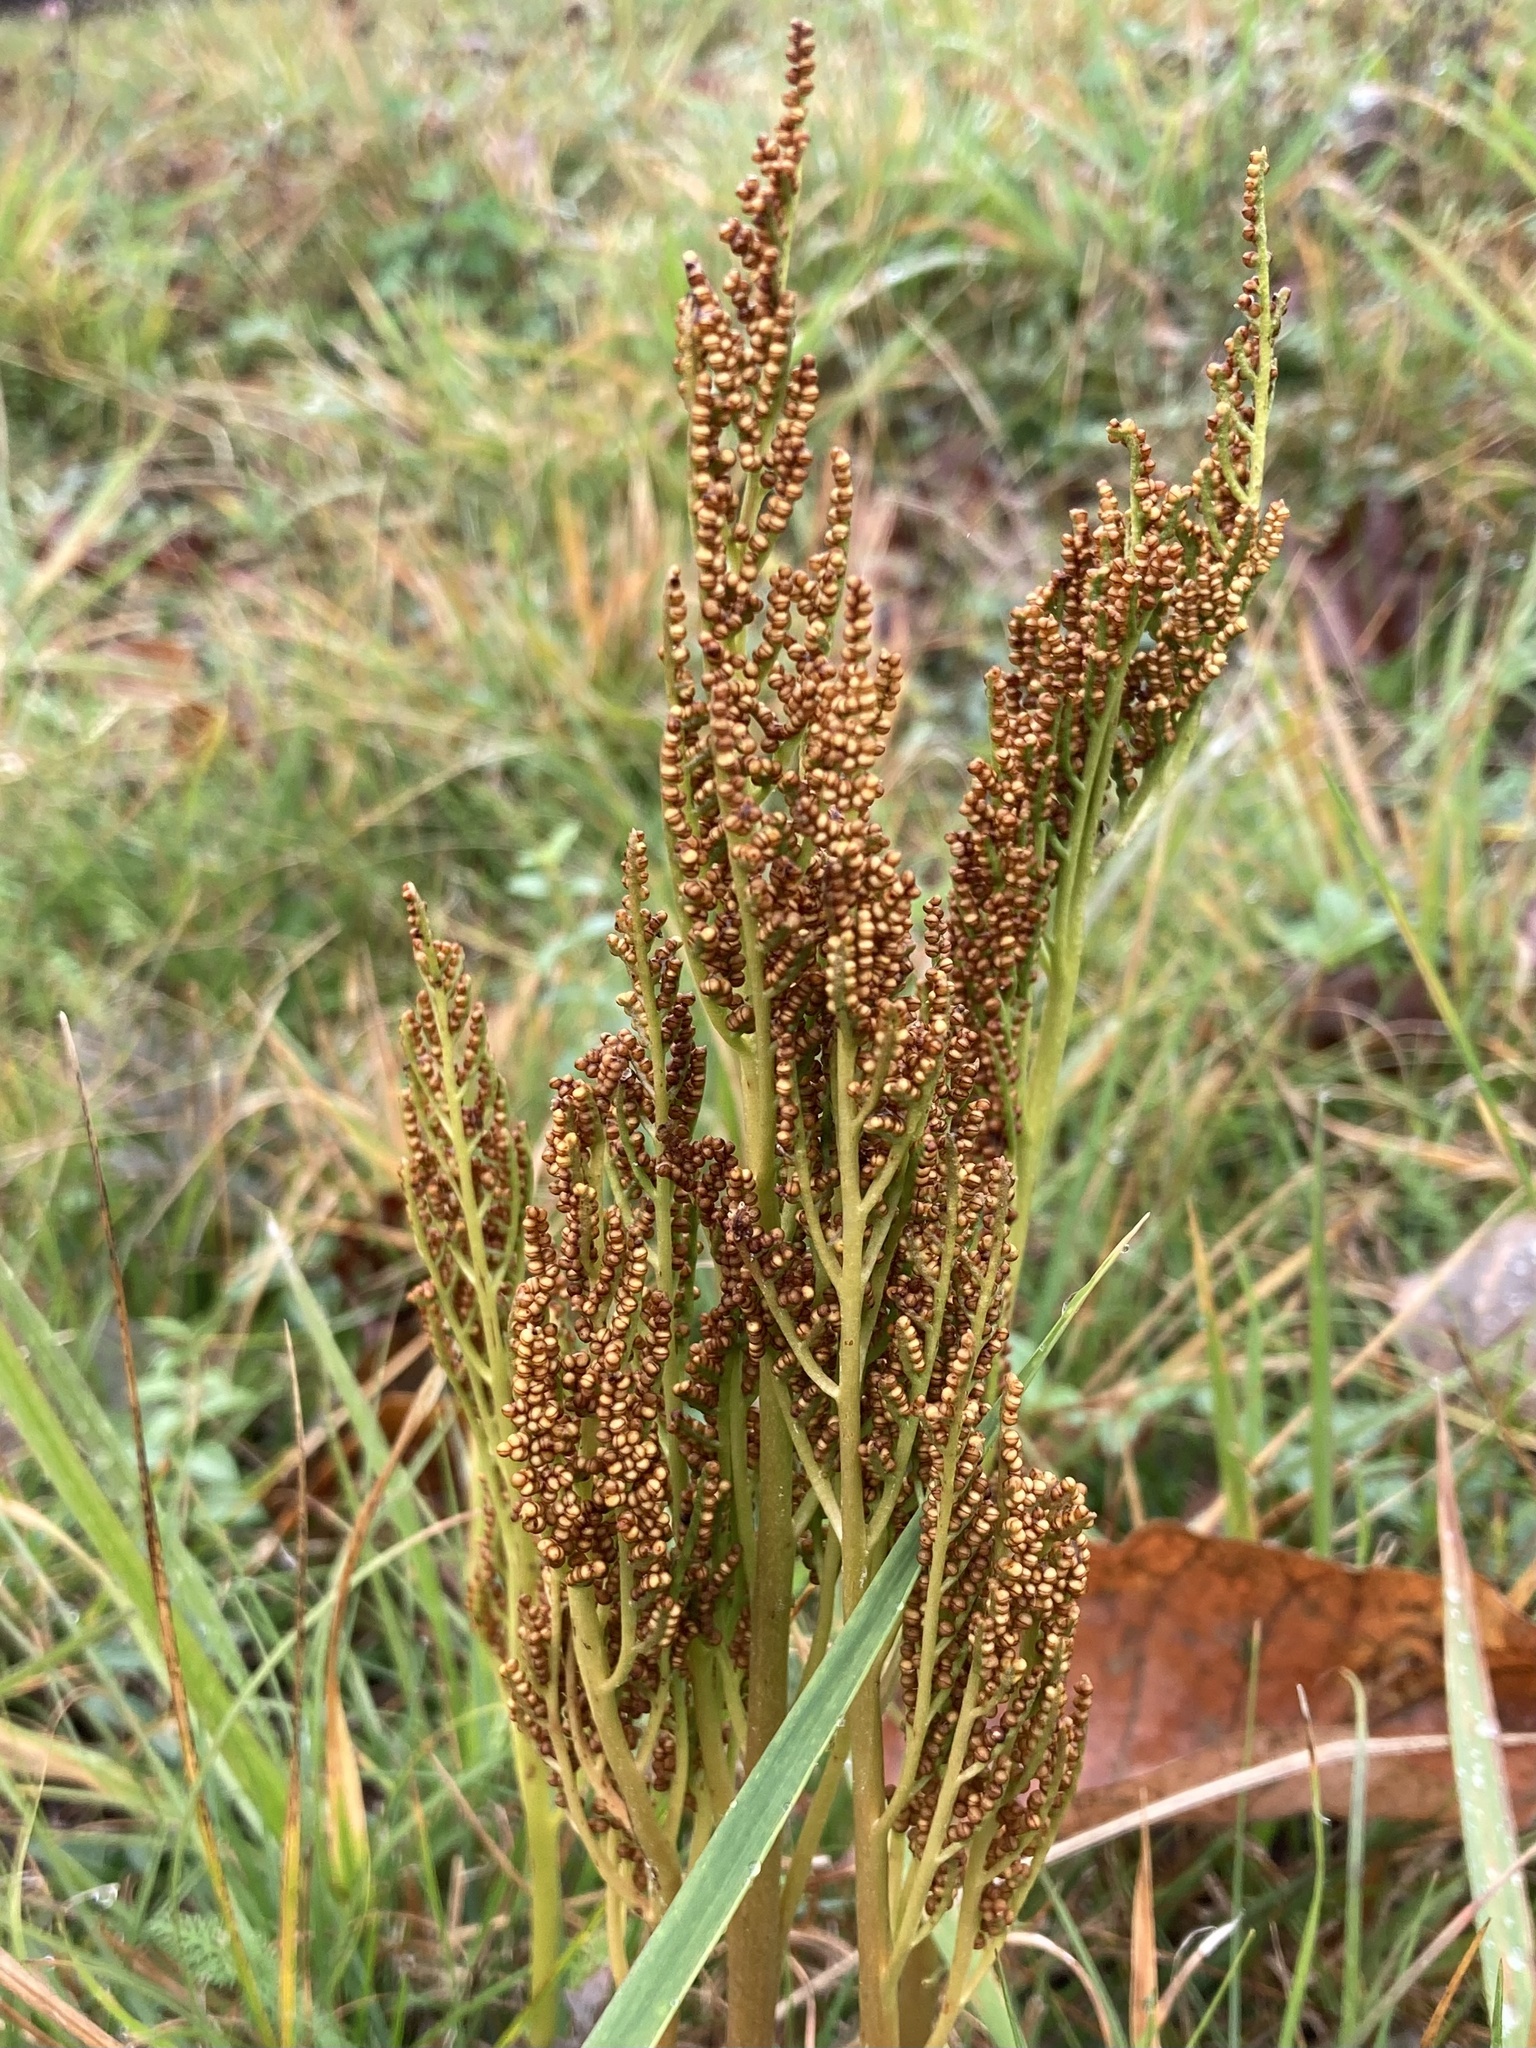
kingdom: Plantae
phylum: Tracheophyta
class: Polypodiopsida
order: Ophioglossales
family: Ophioglossaceae
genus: Sceptridium
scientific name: Sceptridium multifidum
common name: Leathery grape fern
